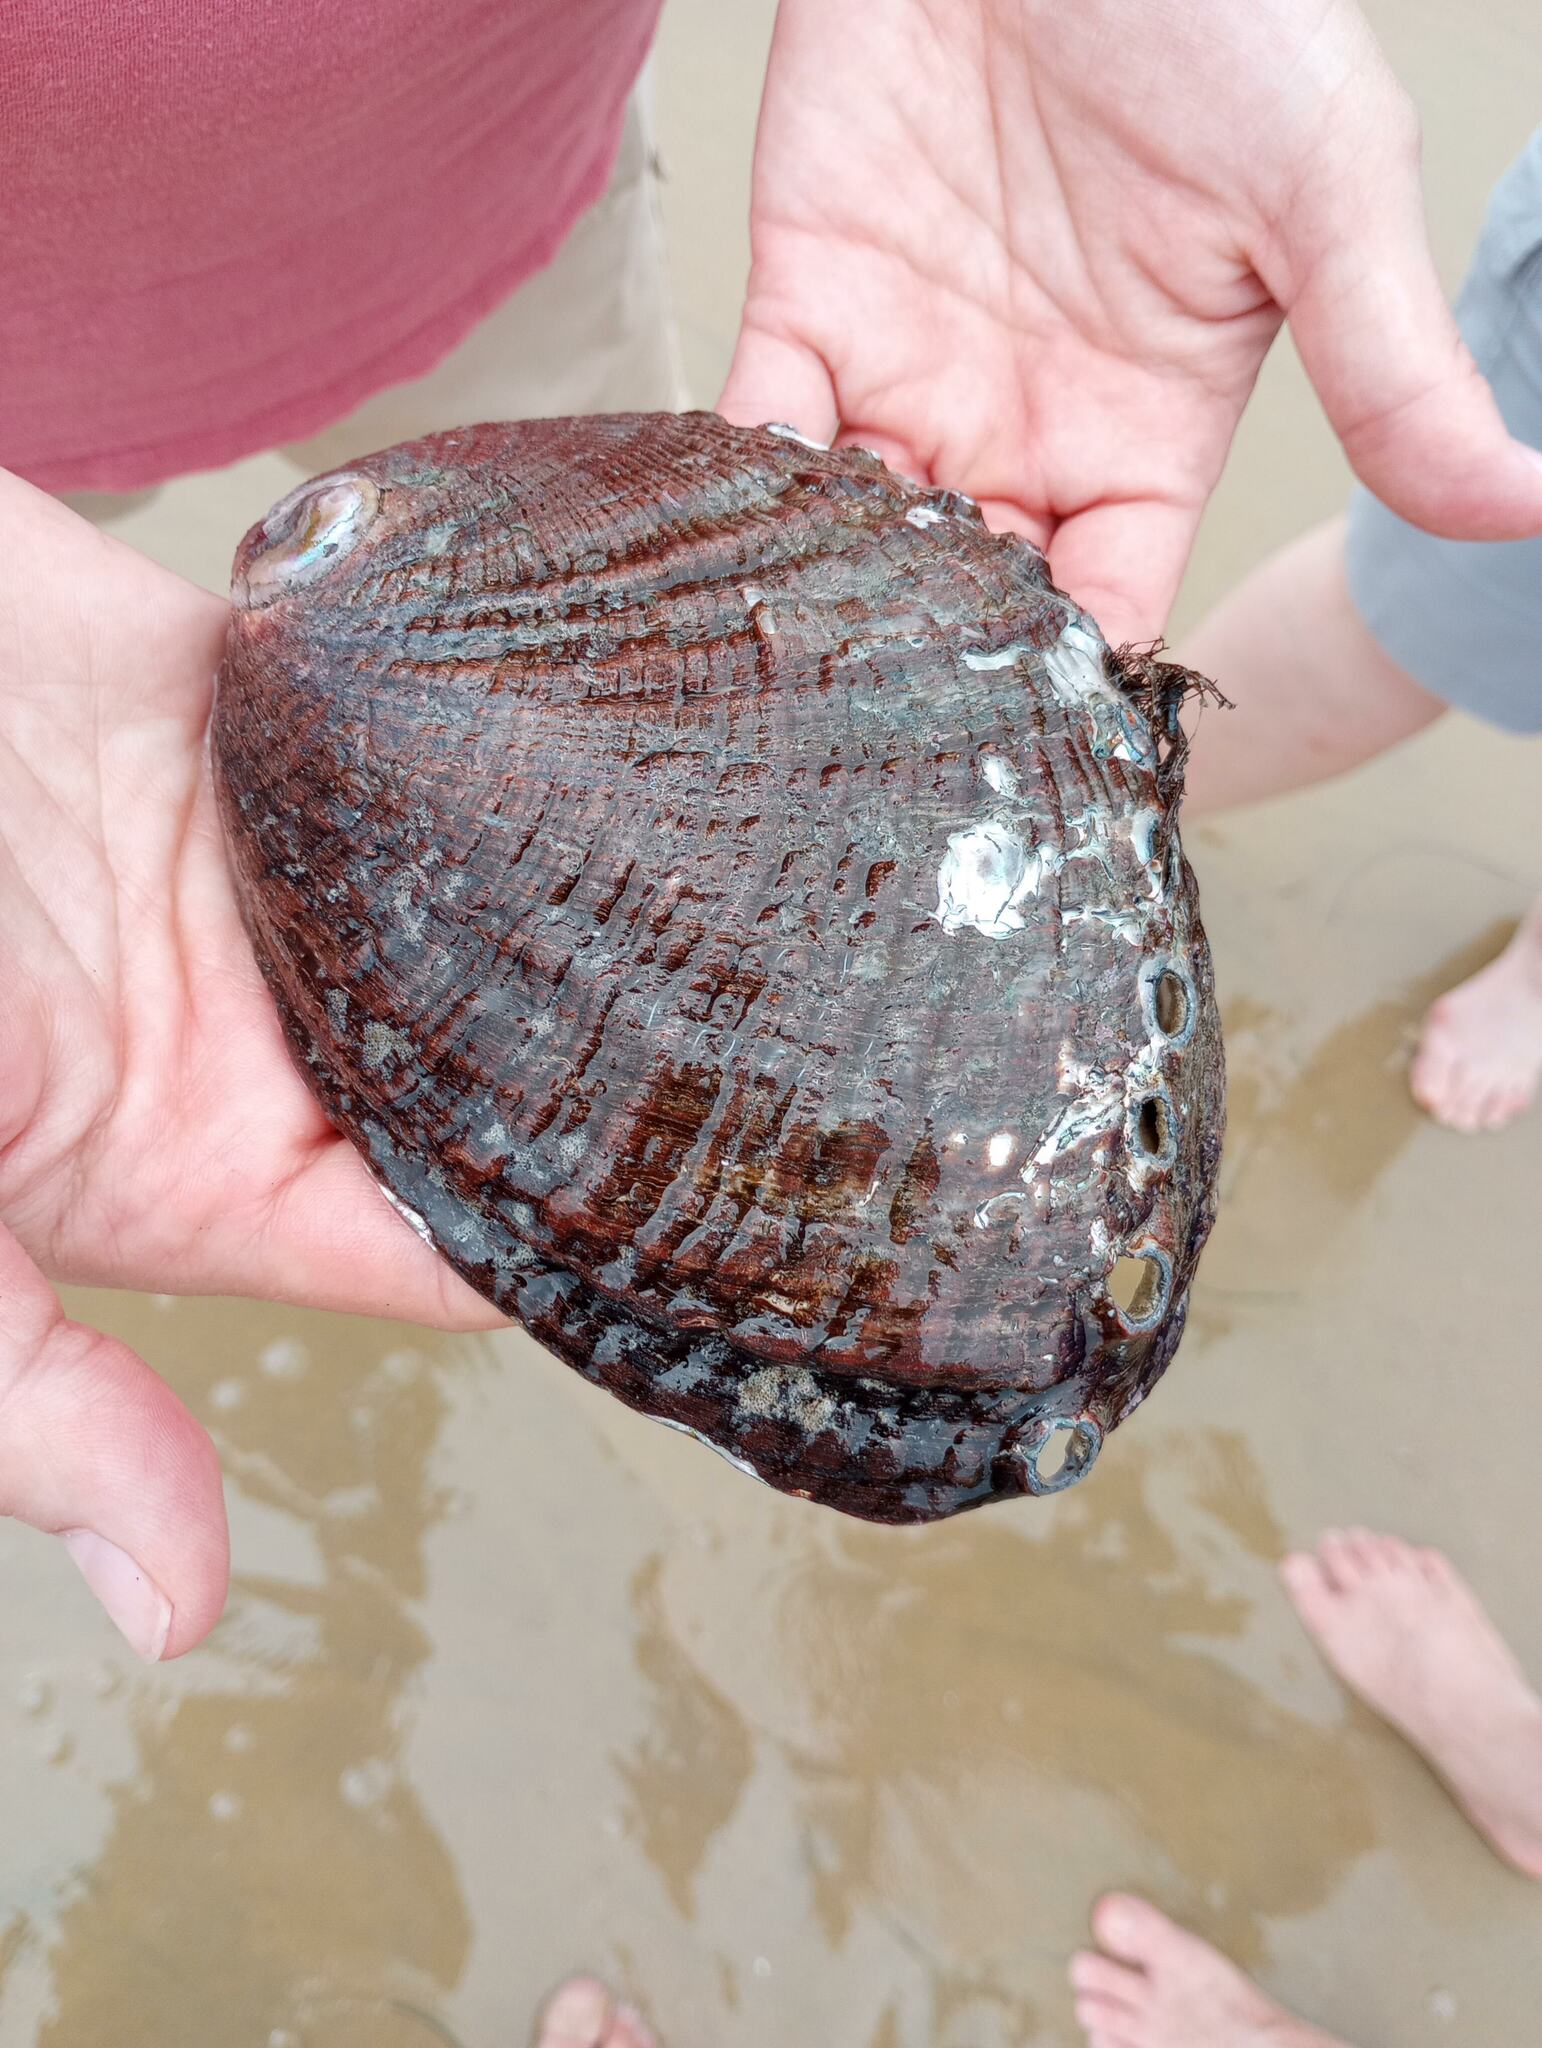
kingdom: Animalia
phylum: Mollusca
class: Gastropoda
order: Lepetellida
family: Haliotidae
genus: Haliotis
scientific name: Haliotis fulgens
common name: Green abalone
